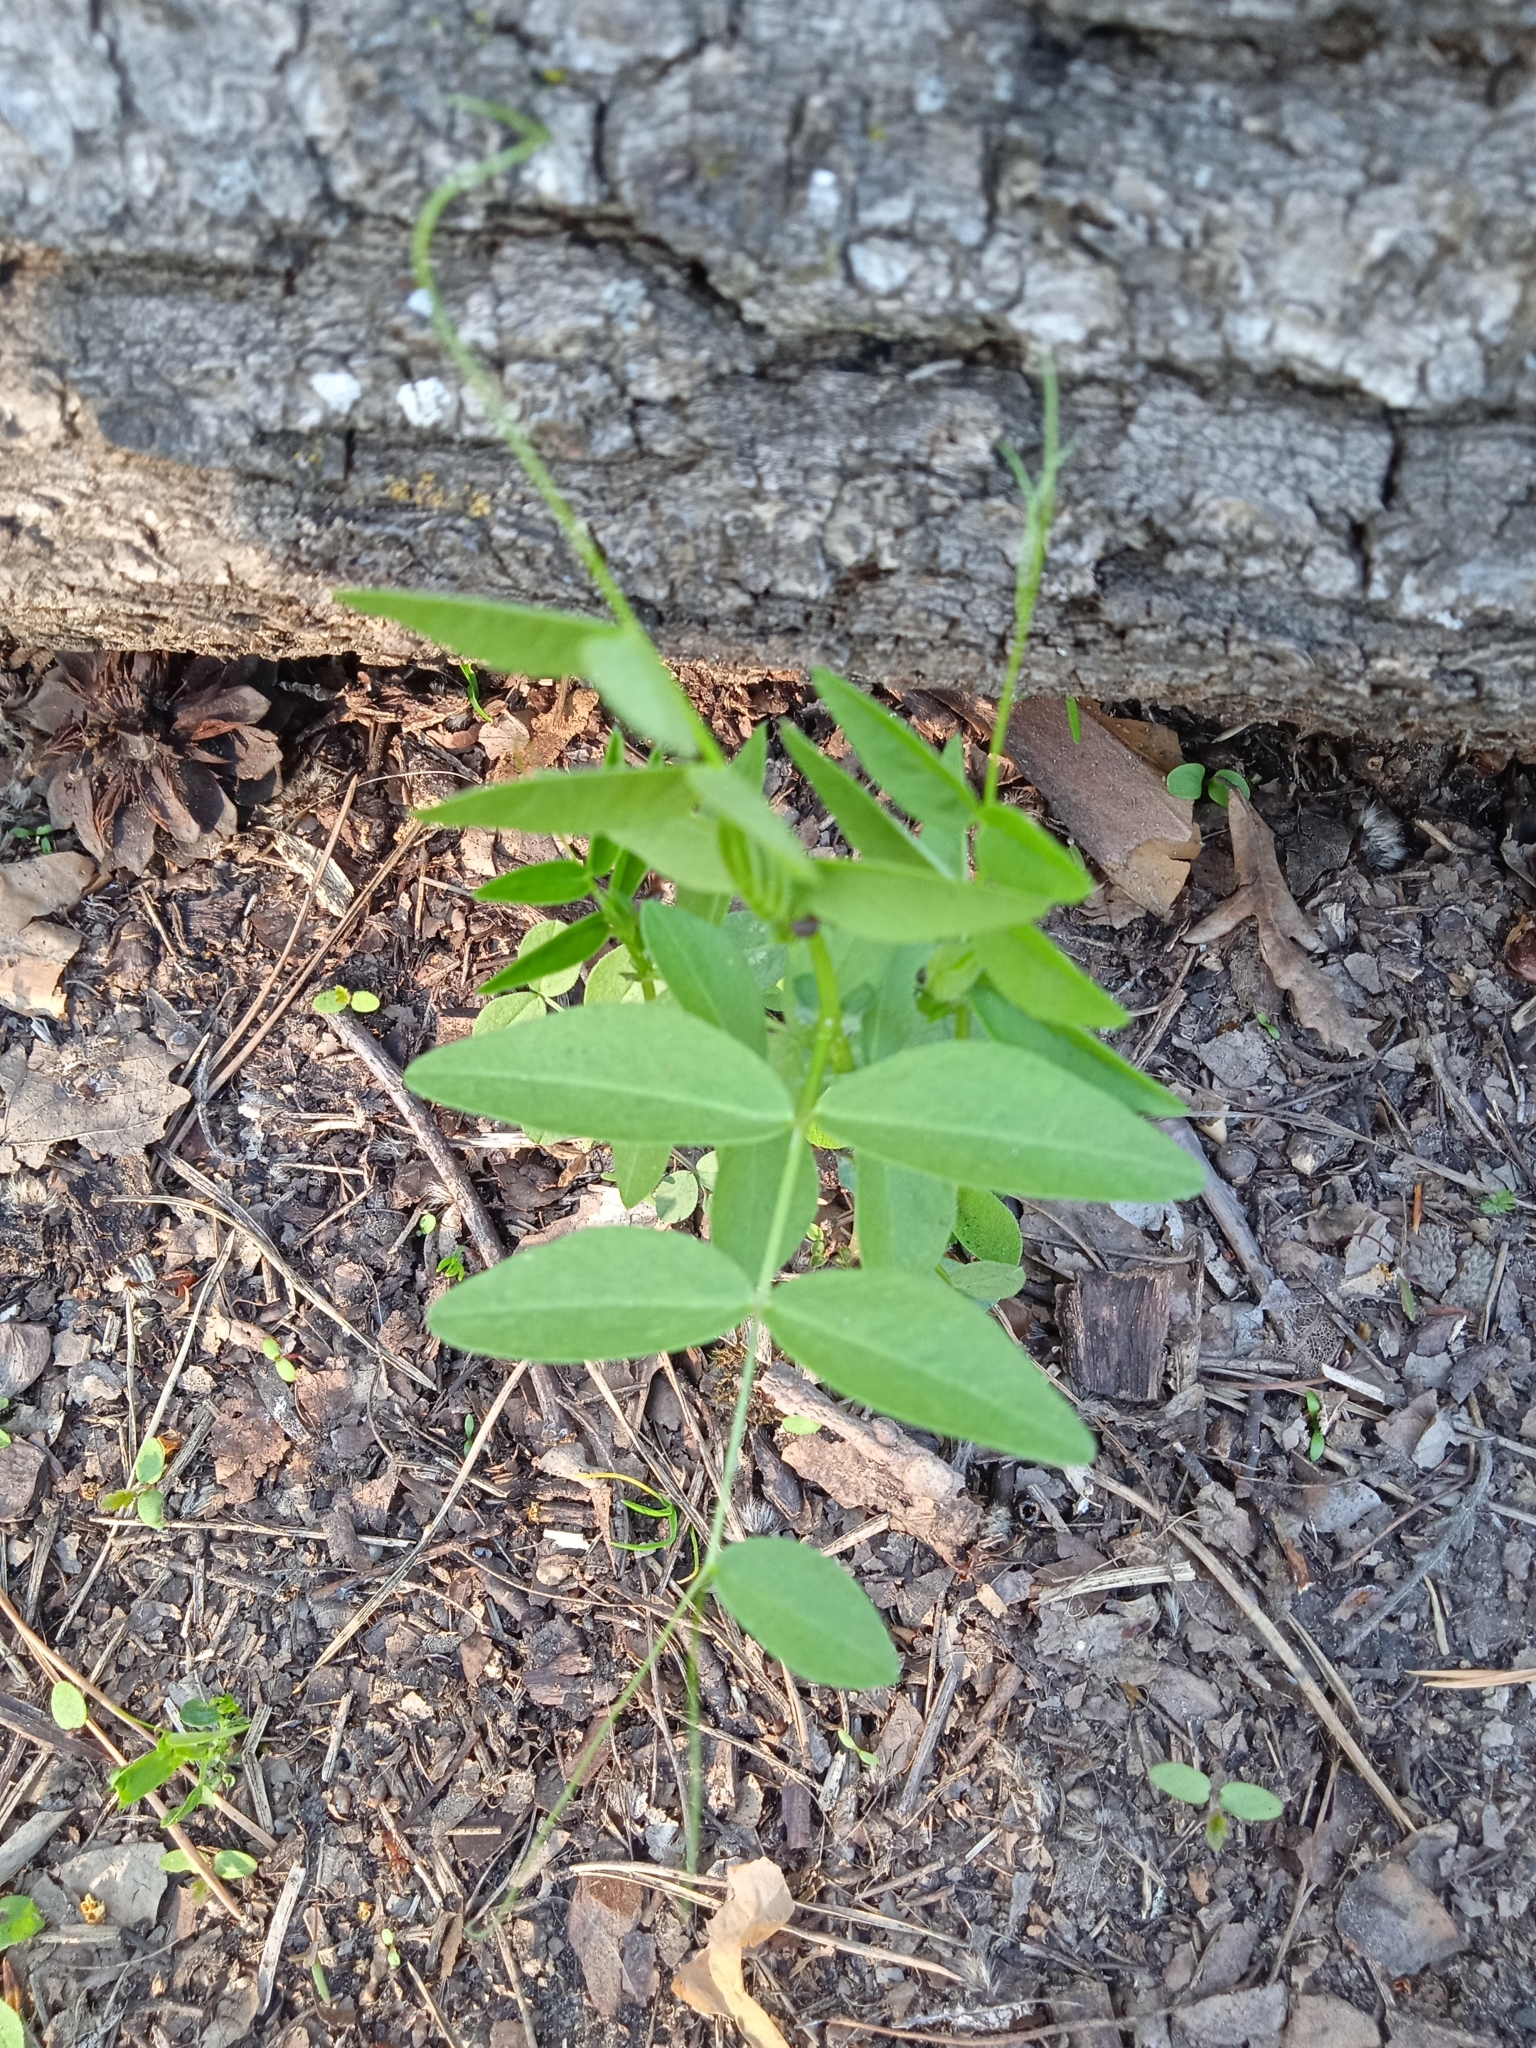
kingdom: Plantae
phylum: Tracheophyta
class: Magnoliopsida
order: Fabales
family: Fabaceae
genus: Vicia
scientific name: Vicia sepium
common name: Bush vetch
